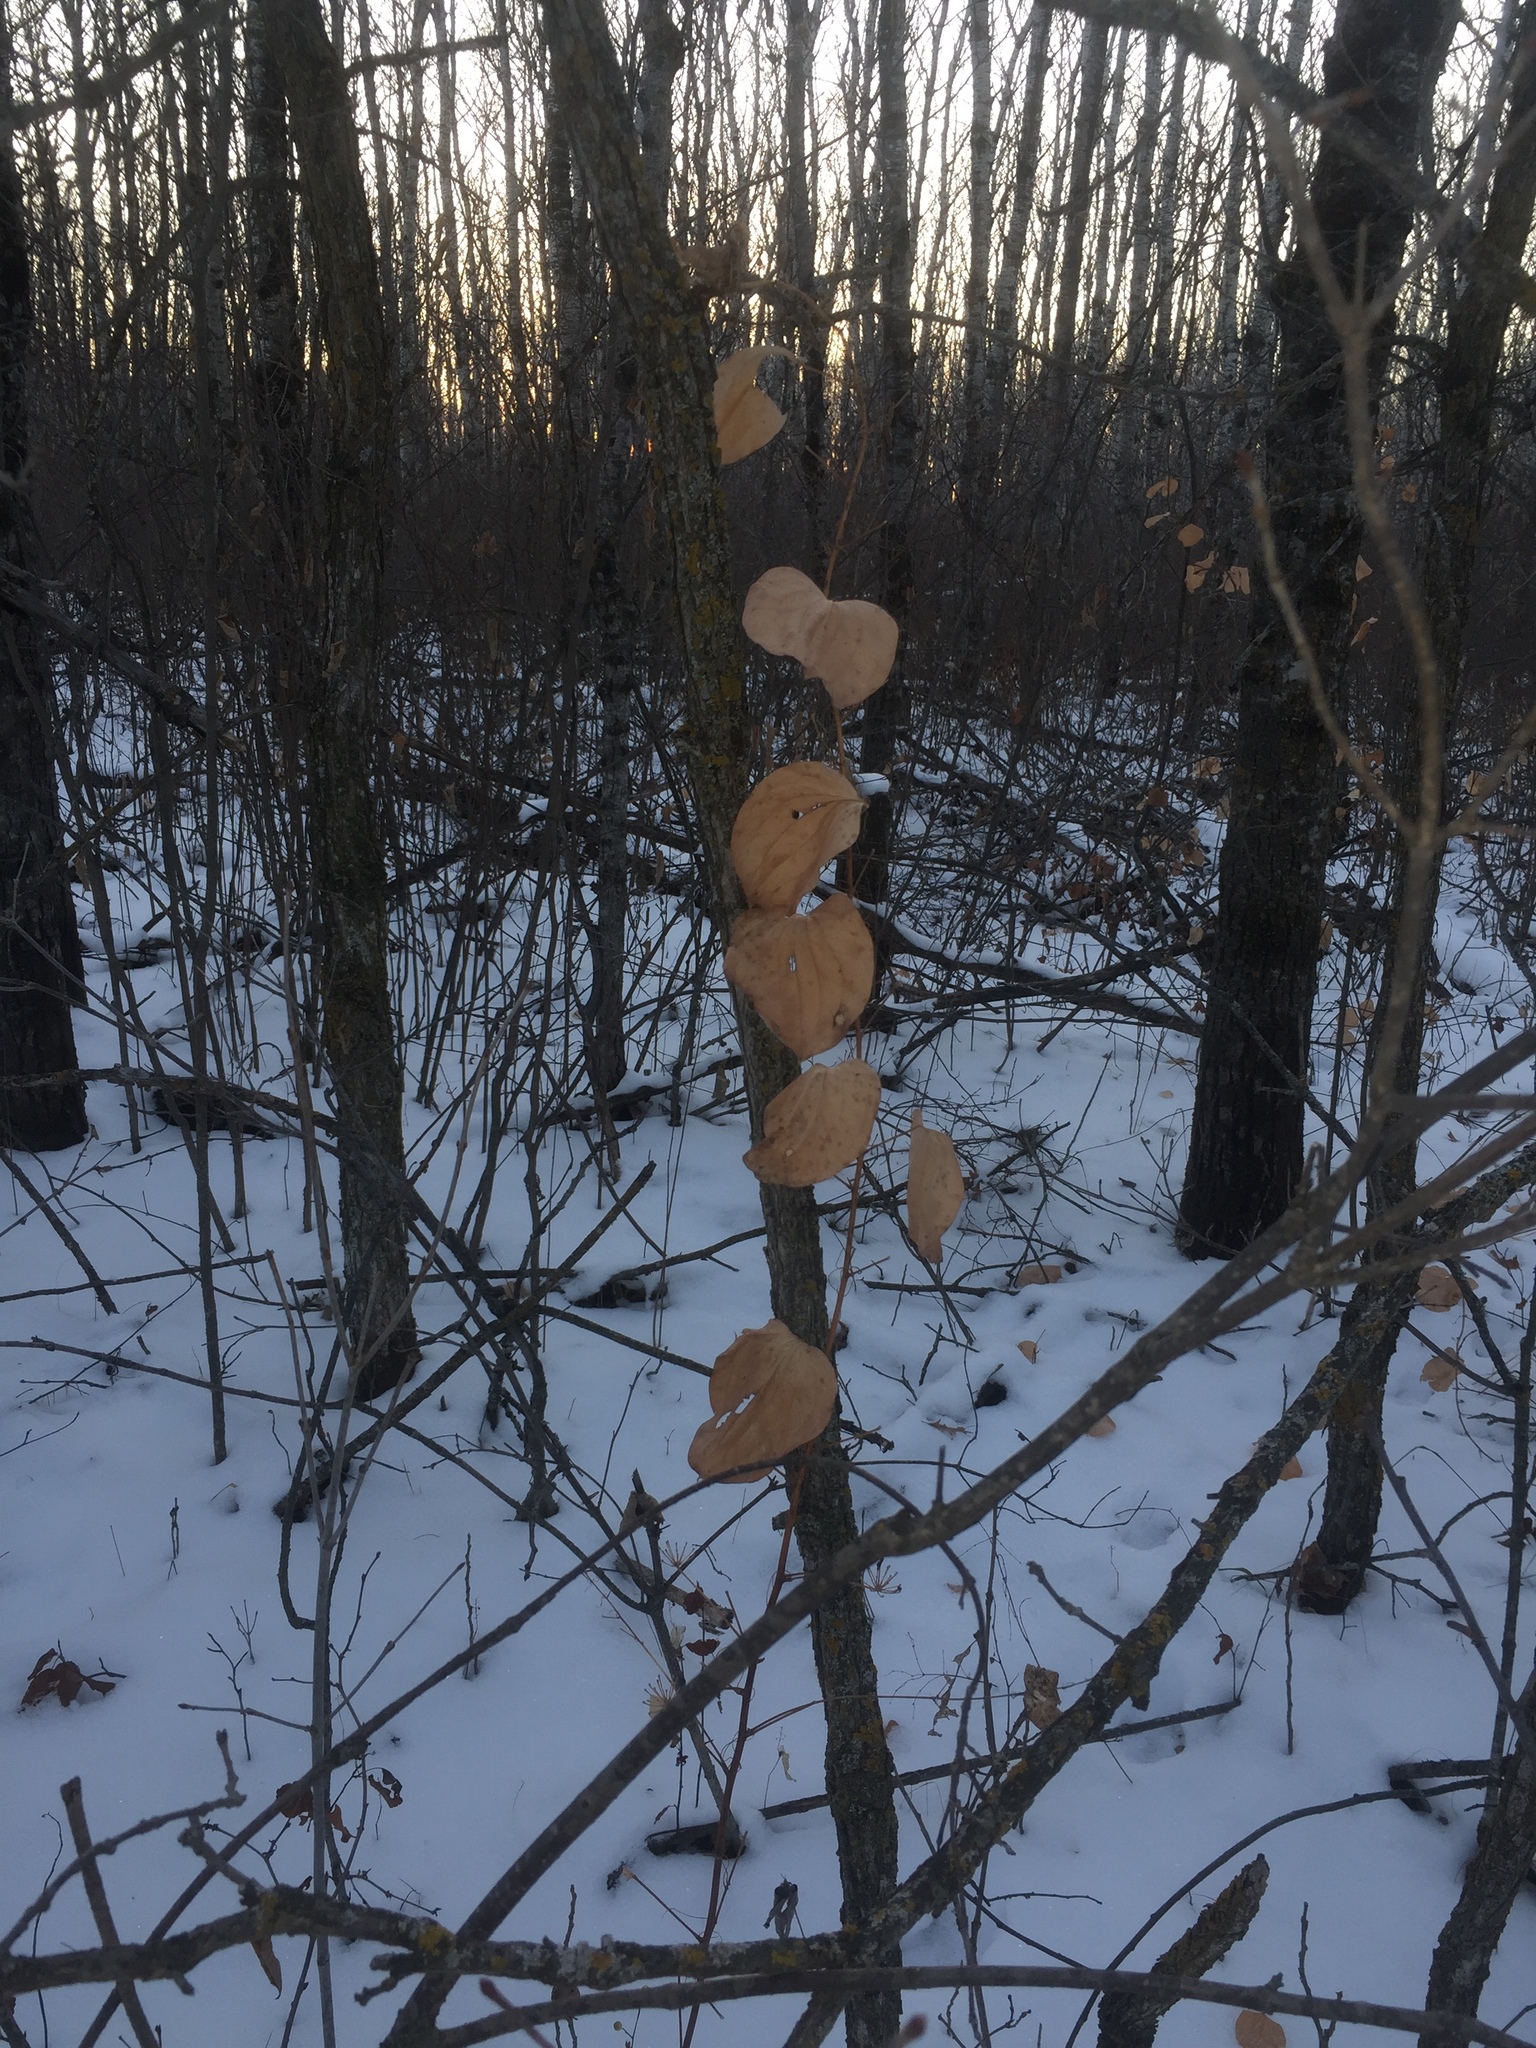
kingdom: Plantae
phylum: Tracheophyta
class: Liliopsida
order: Liliales
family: Smilacaceae
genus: Smilax
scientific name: Smilax lasioneura
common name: Blue ridge carrionflower
